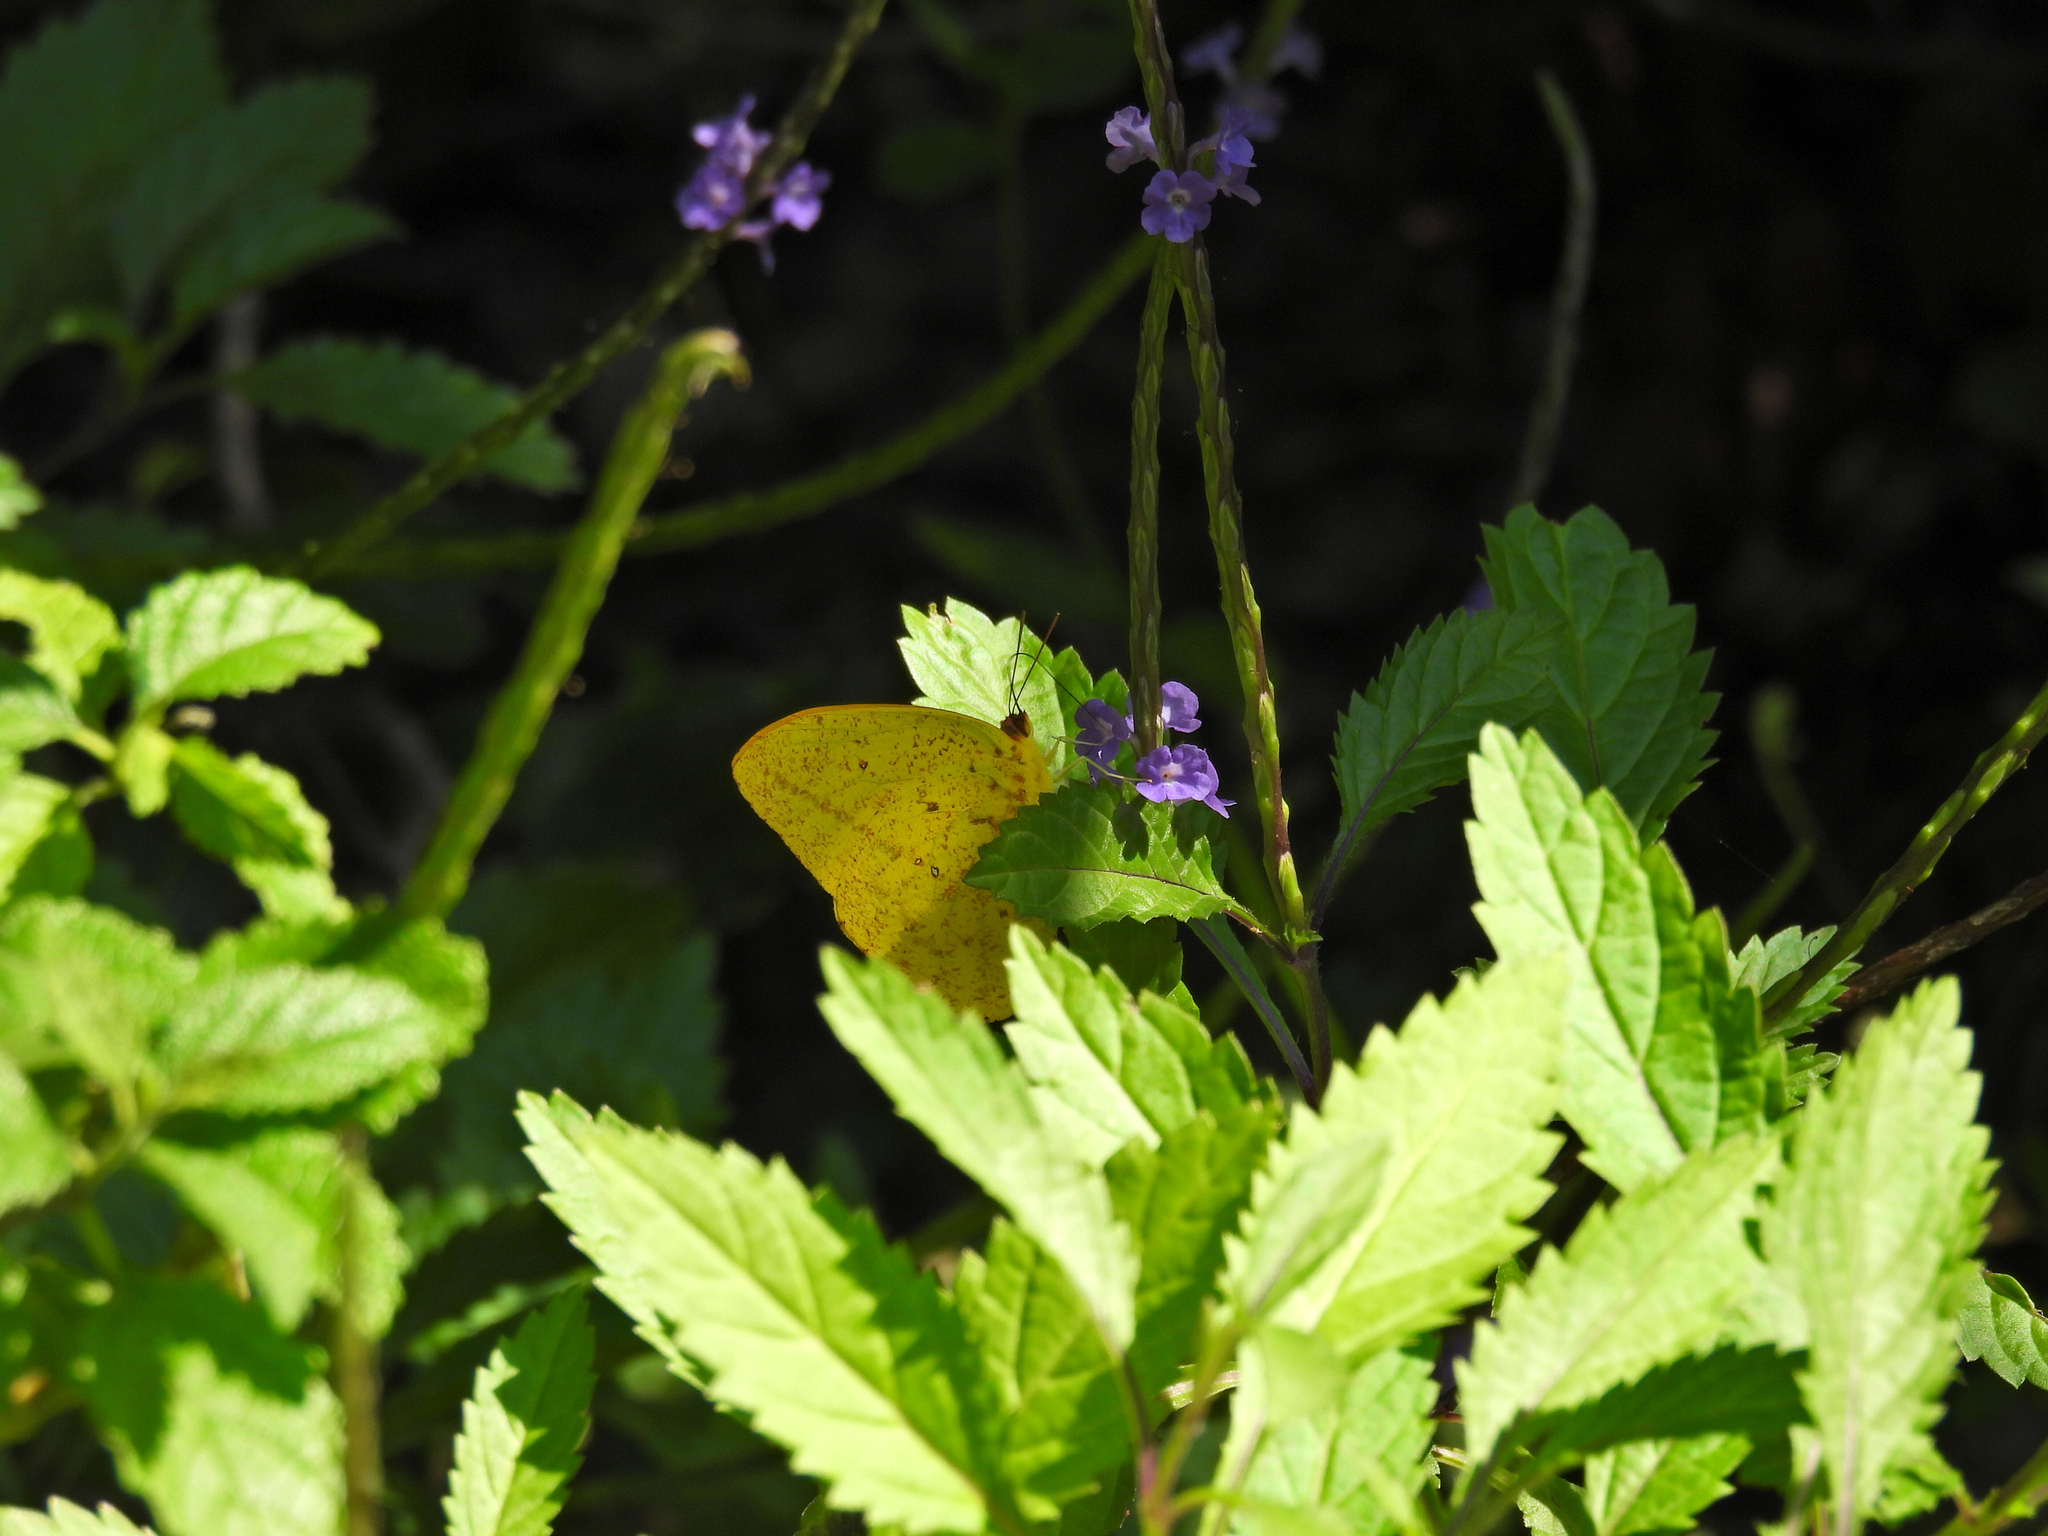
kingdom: Animalia
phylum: Arthropoda
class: Insecta
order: Lepidoptera
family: Pieridae
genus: Phoebis
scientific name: Phoebis agarithe
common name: Large orange sulphur
